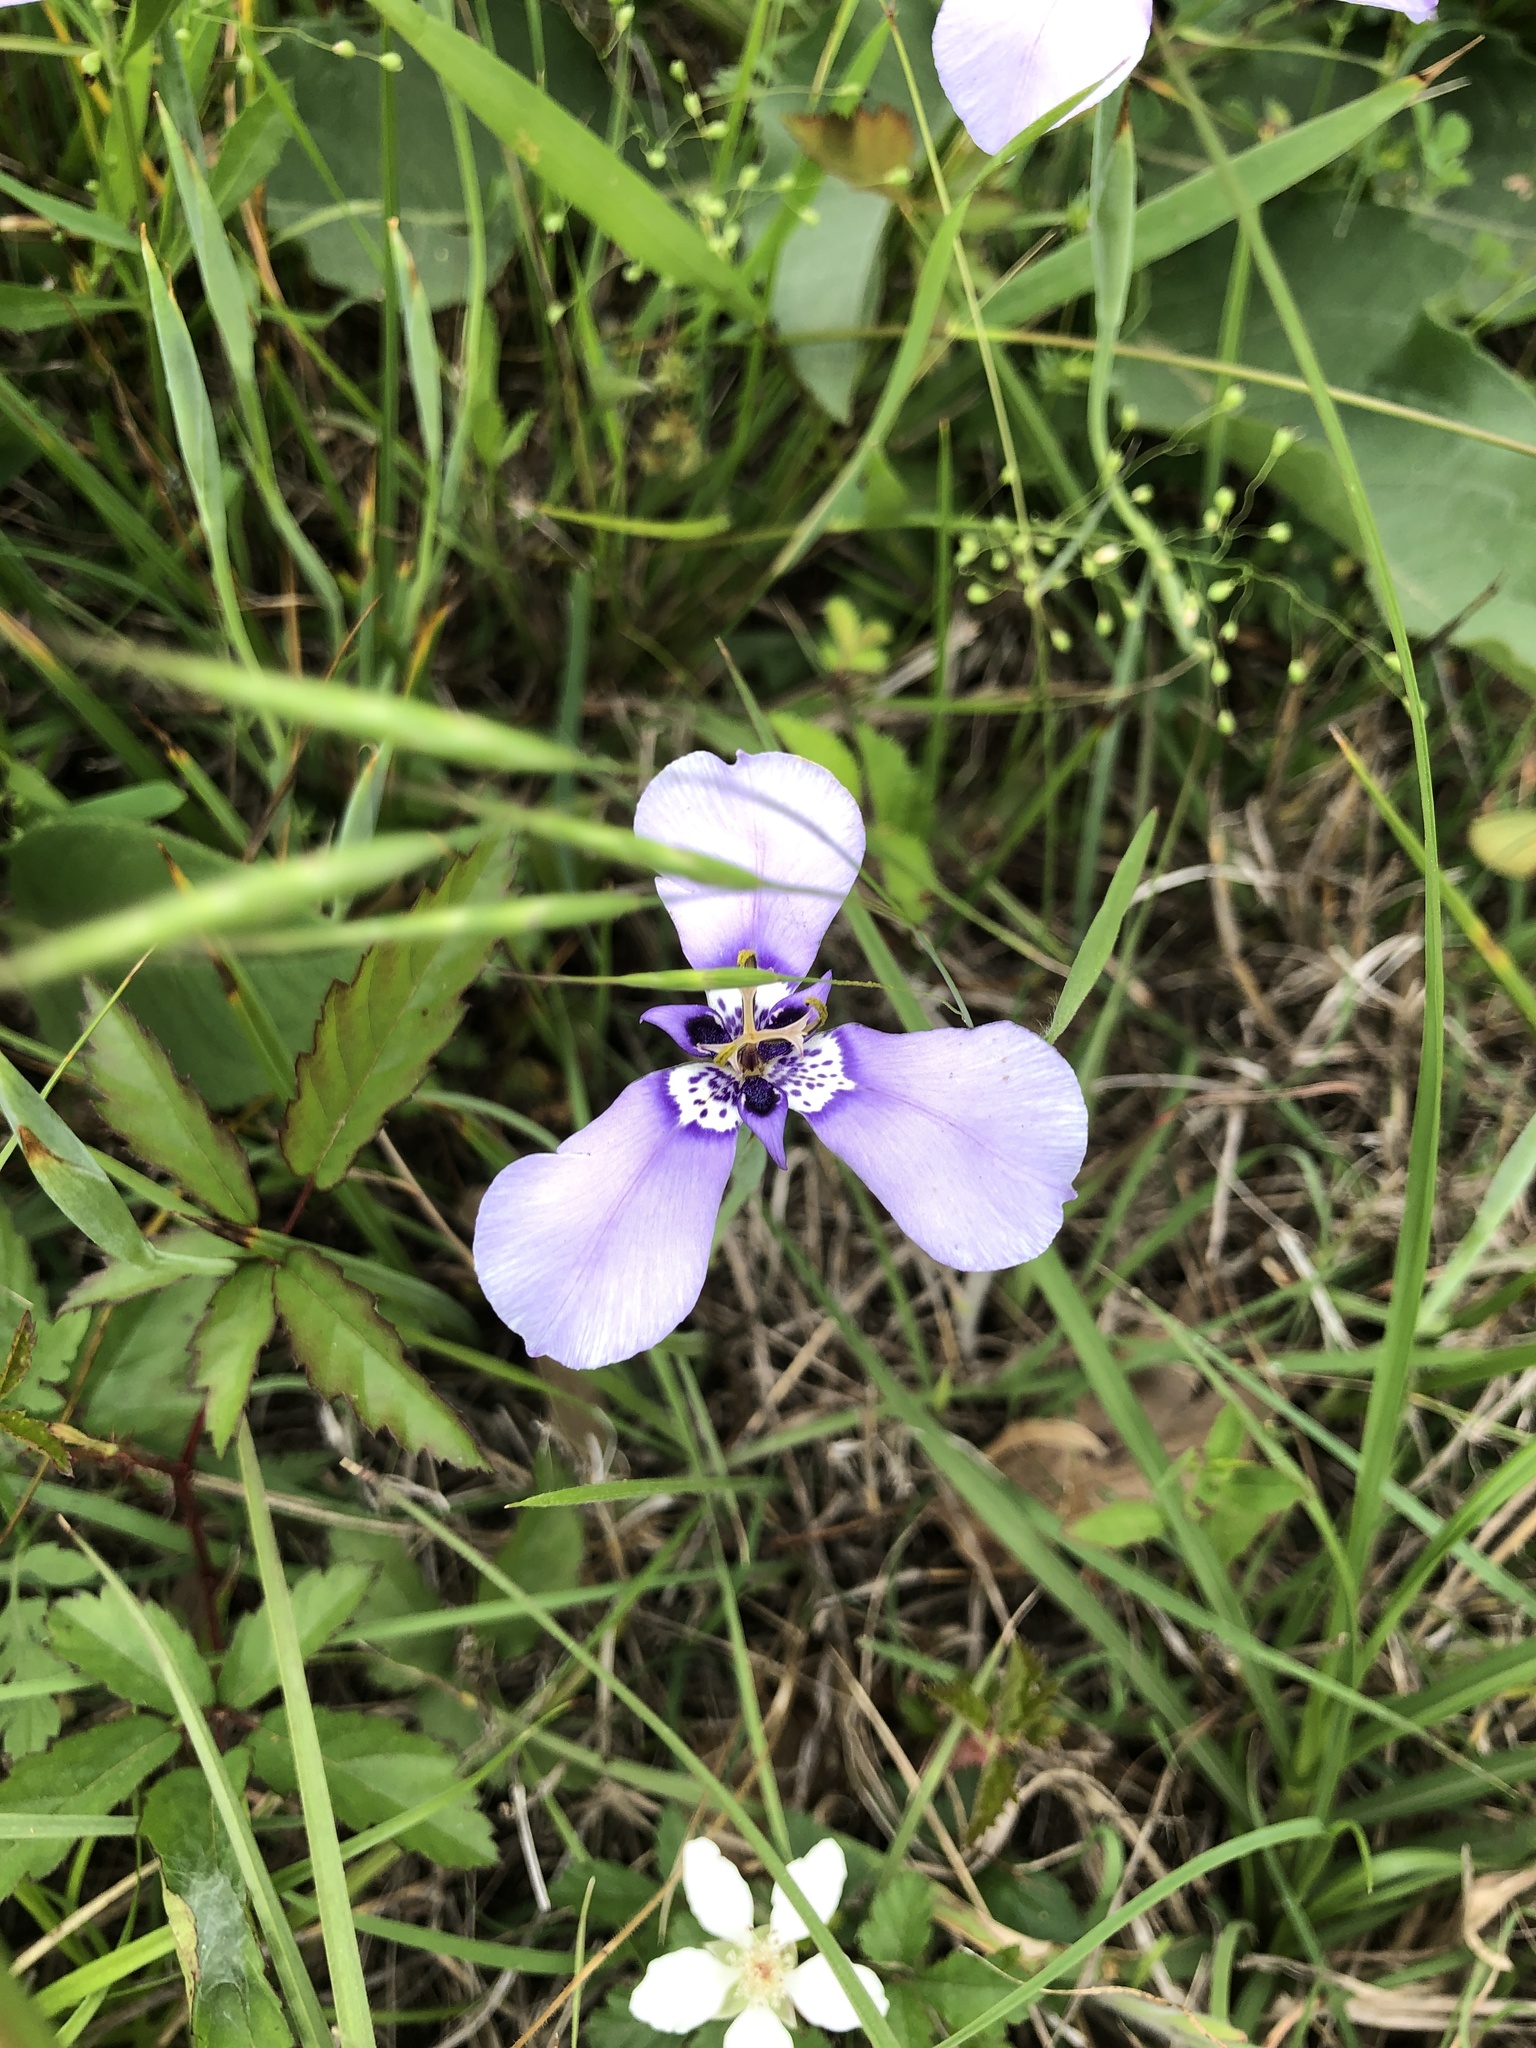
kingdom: Plantae
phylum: Tracheophyta
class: Liliopsida
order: Asparagales
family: Iridaceae
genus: Herbertia
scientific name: Herbertia lahue
